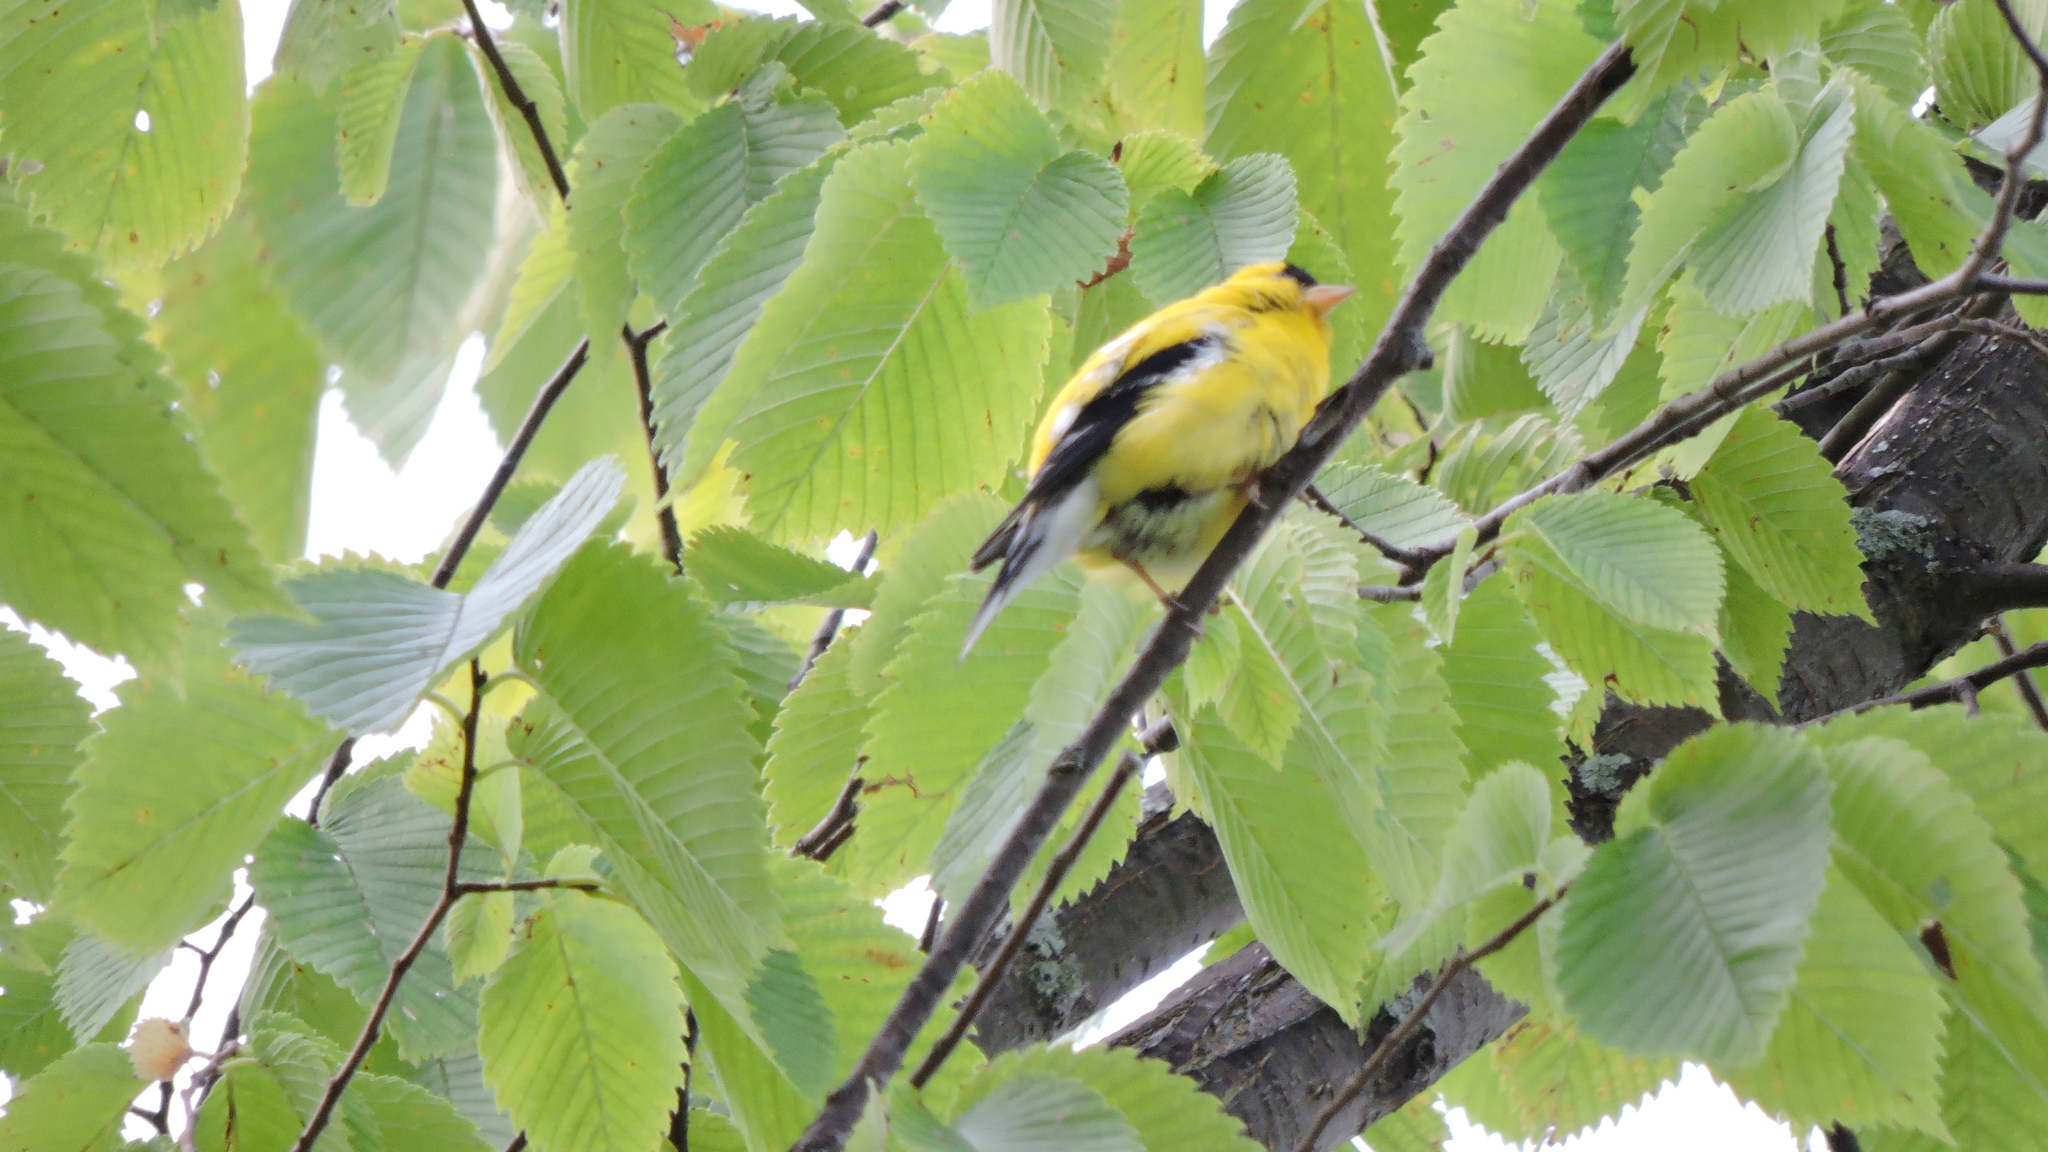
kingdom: Animalia
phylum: Chordata
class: Aves
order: Passeriformes
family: Fringillidae
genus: Spinus
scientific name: Spinus tristis
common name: American goldfinch
